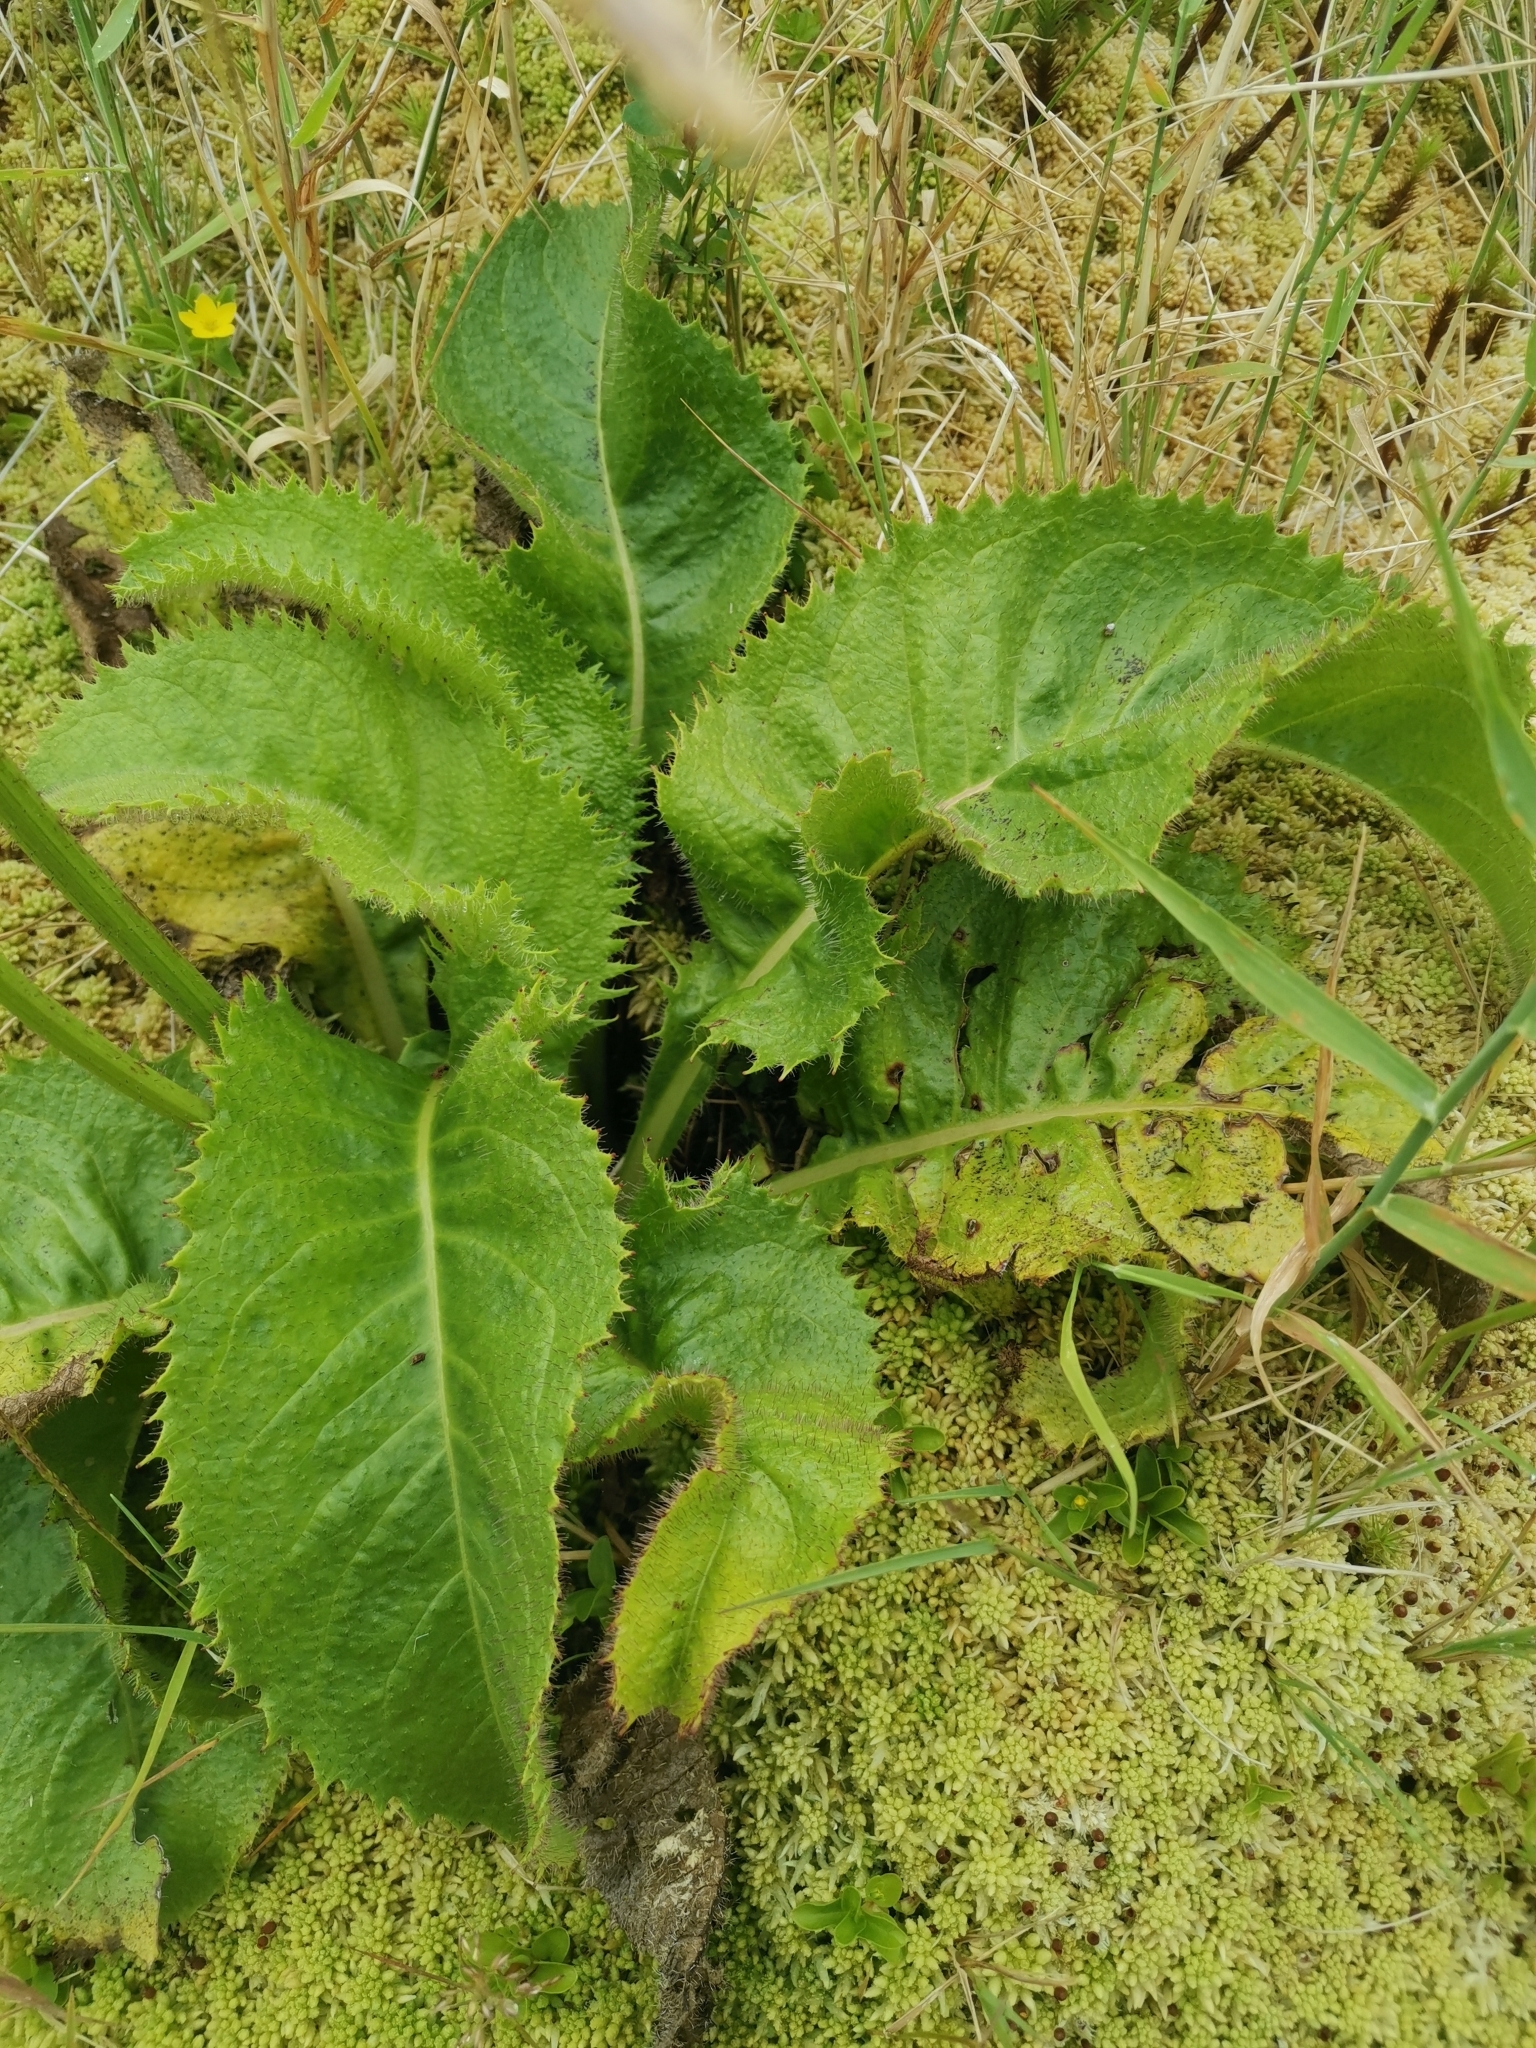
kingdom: Plantae
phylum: Tracheophyta
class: Magnoliopsida
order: Asterales
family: Asteraceae
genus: Leontodon
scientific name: Leontodon hochstetteri
